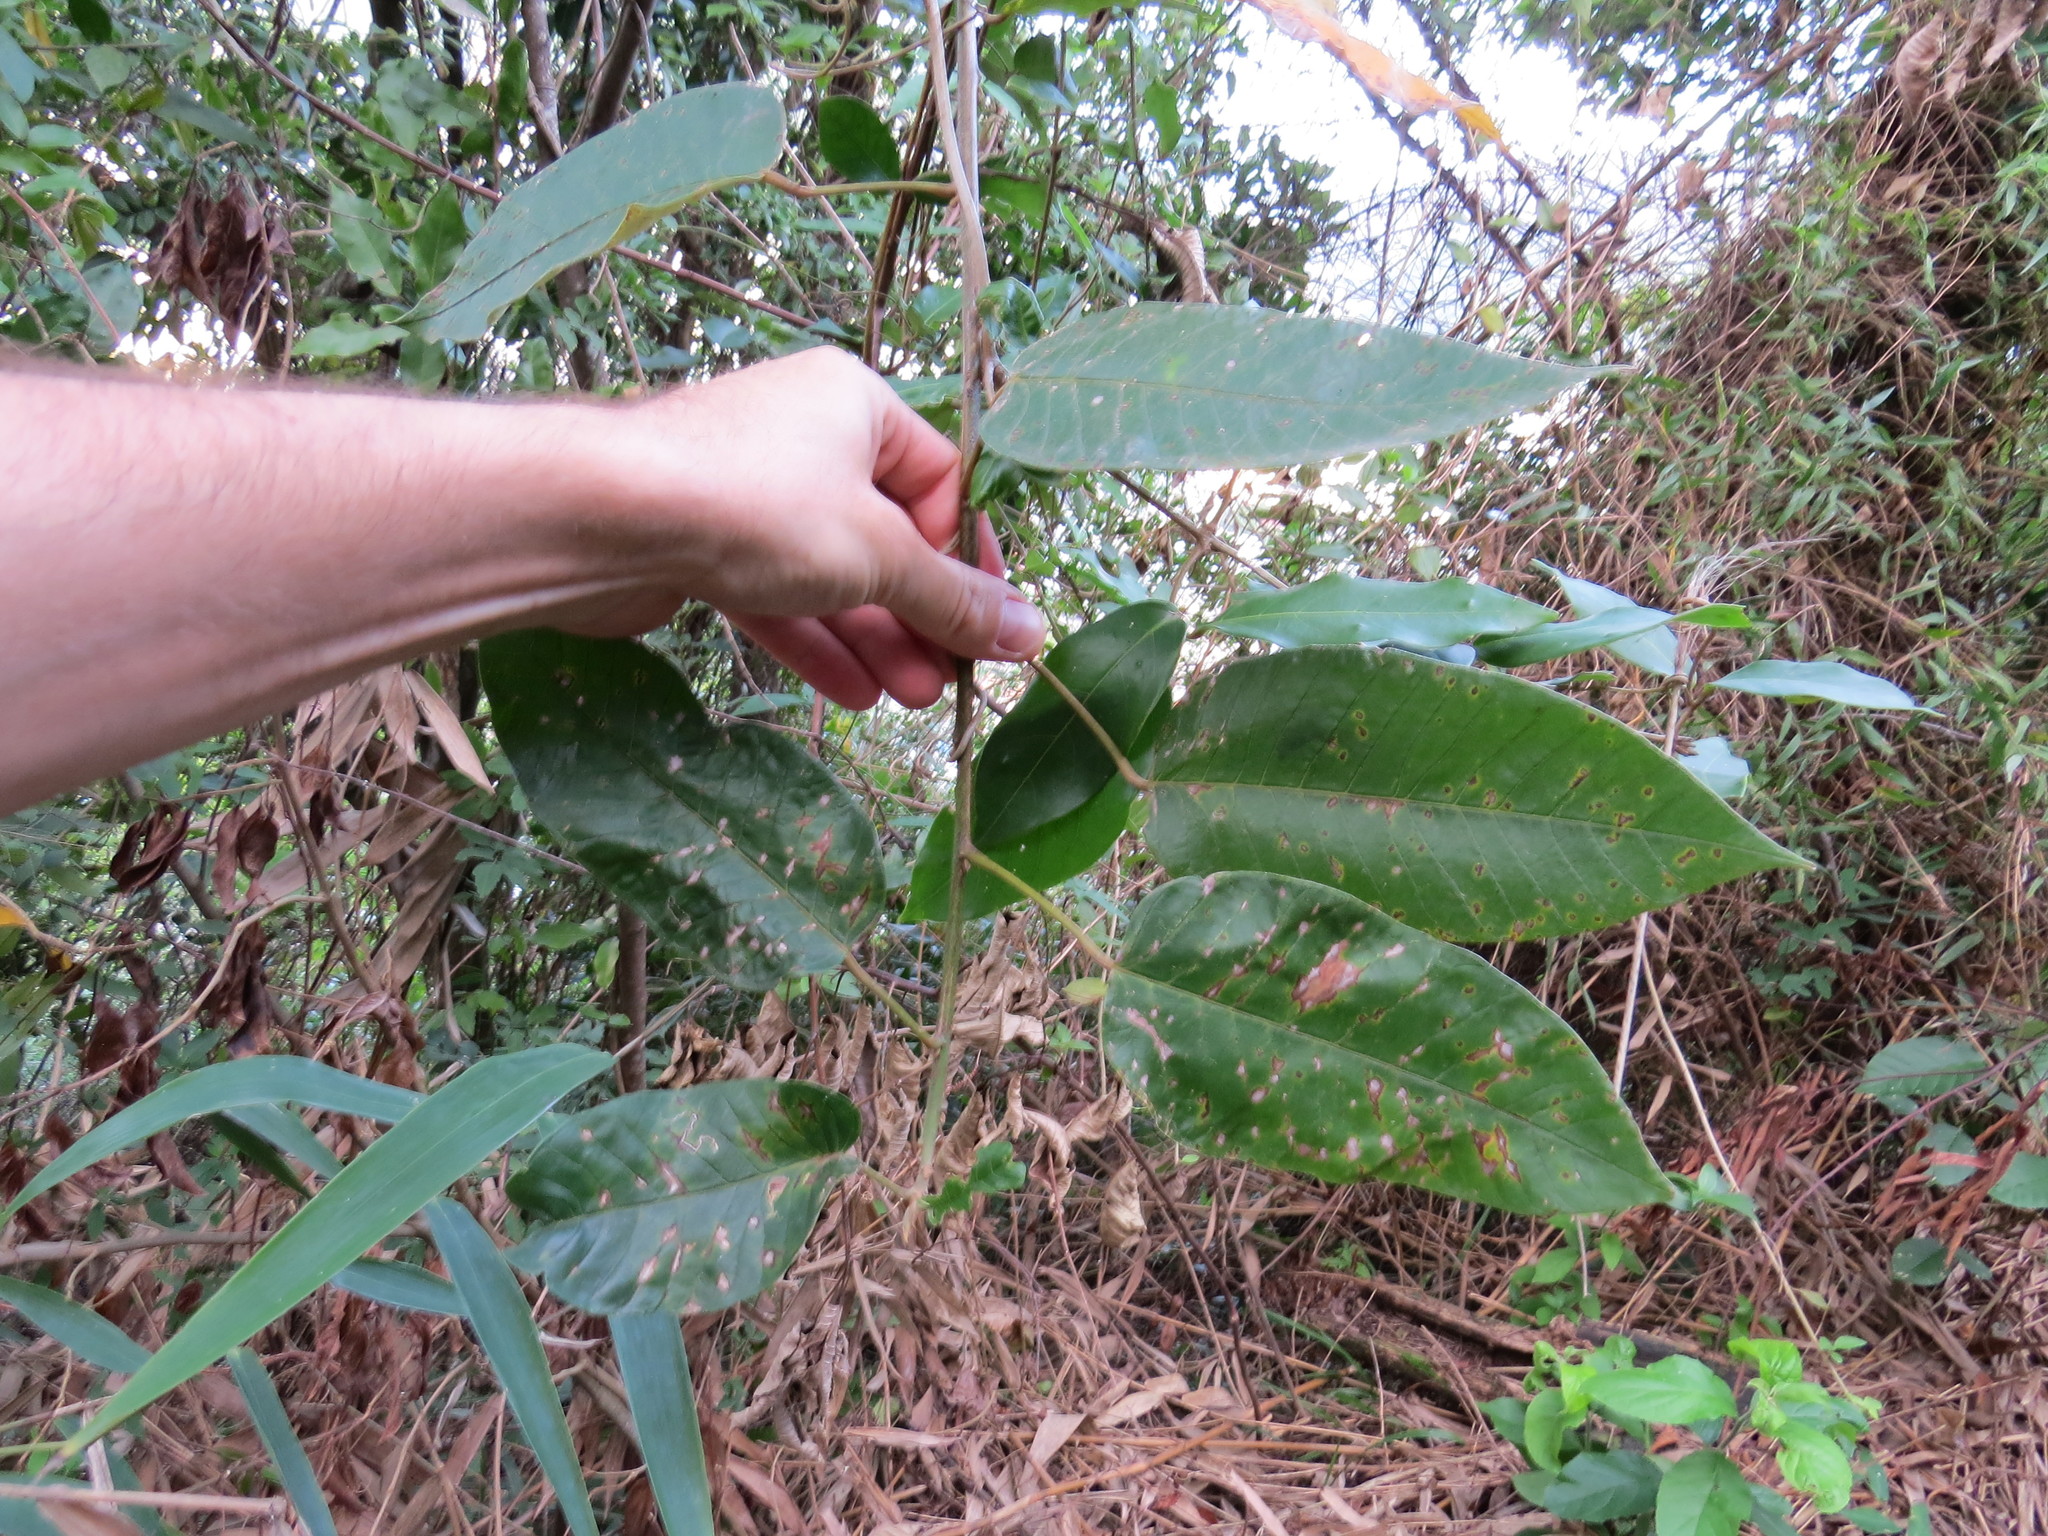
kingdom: Plantae
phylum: Tracheophyta
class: Magnoliopsida
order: Malpighiales
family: Euphorbiaceae
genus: Croton
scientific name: Croton floribundus
